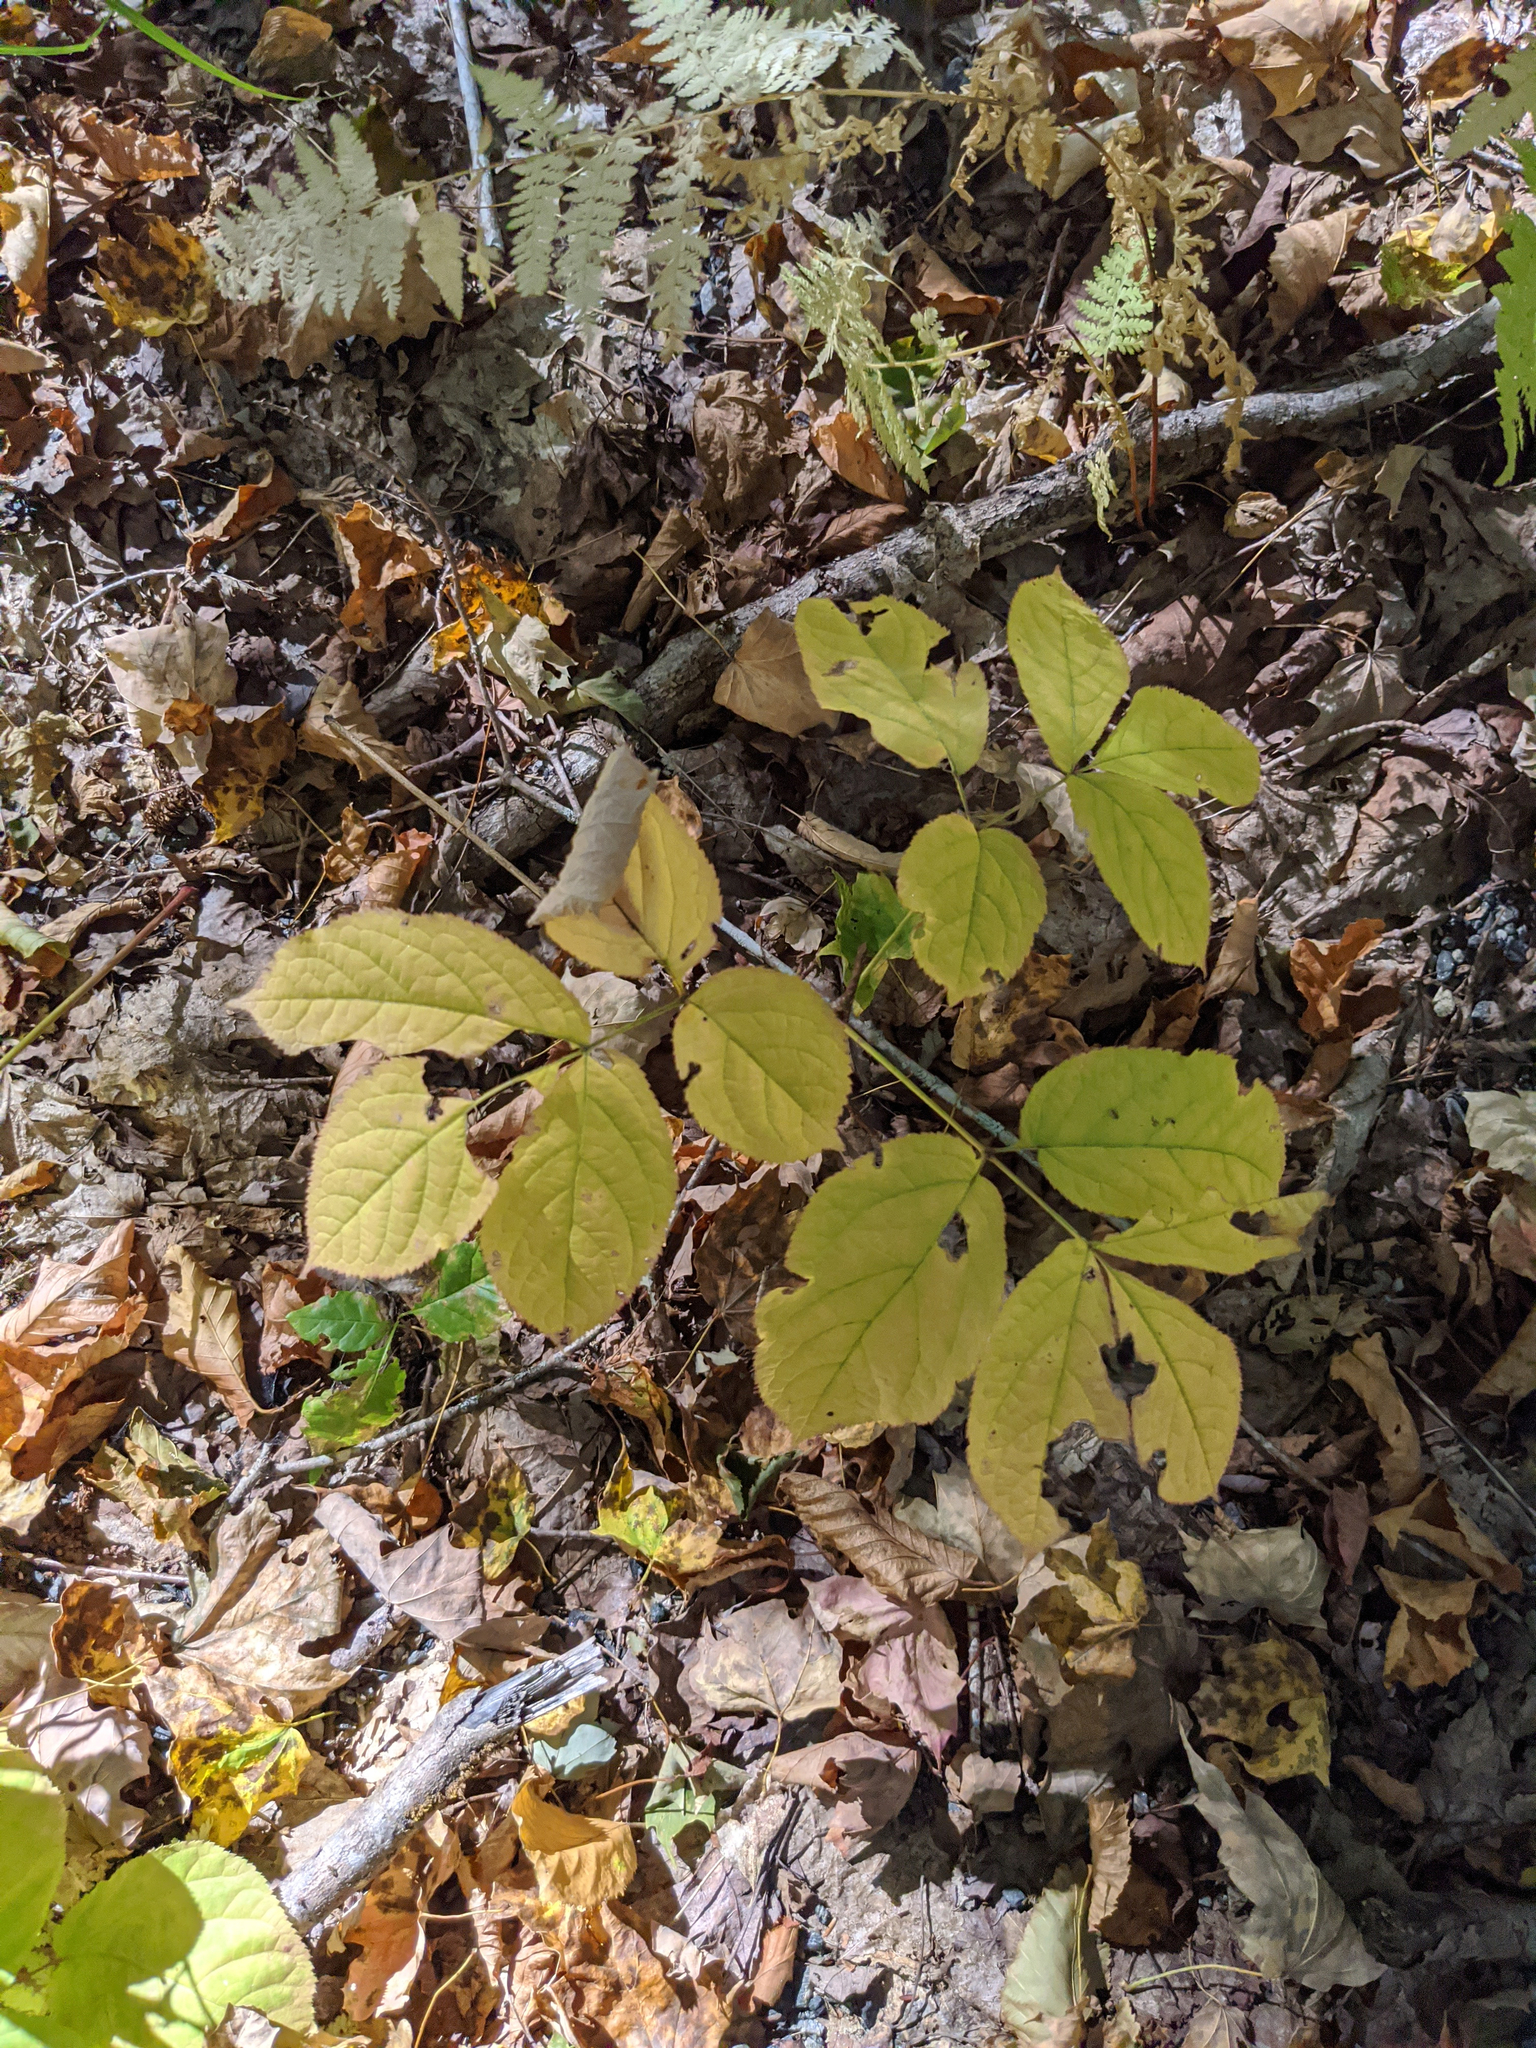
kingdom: Plantae
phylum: Tracheophyta
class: Magnoliopsida
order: Apiales
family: Araliaceae
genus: Aralia
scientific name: Aralia nudicaulis
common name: Wild sarsaparilla
